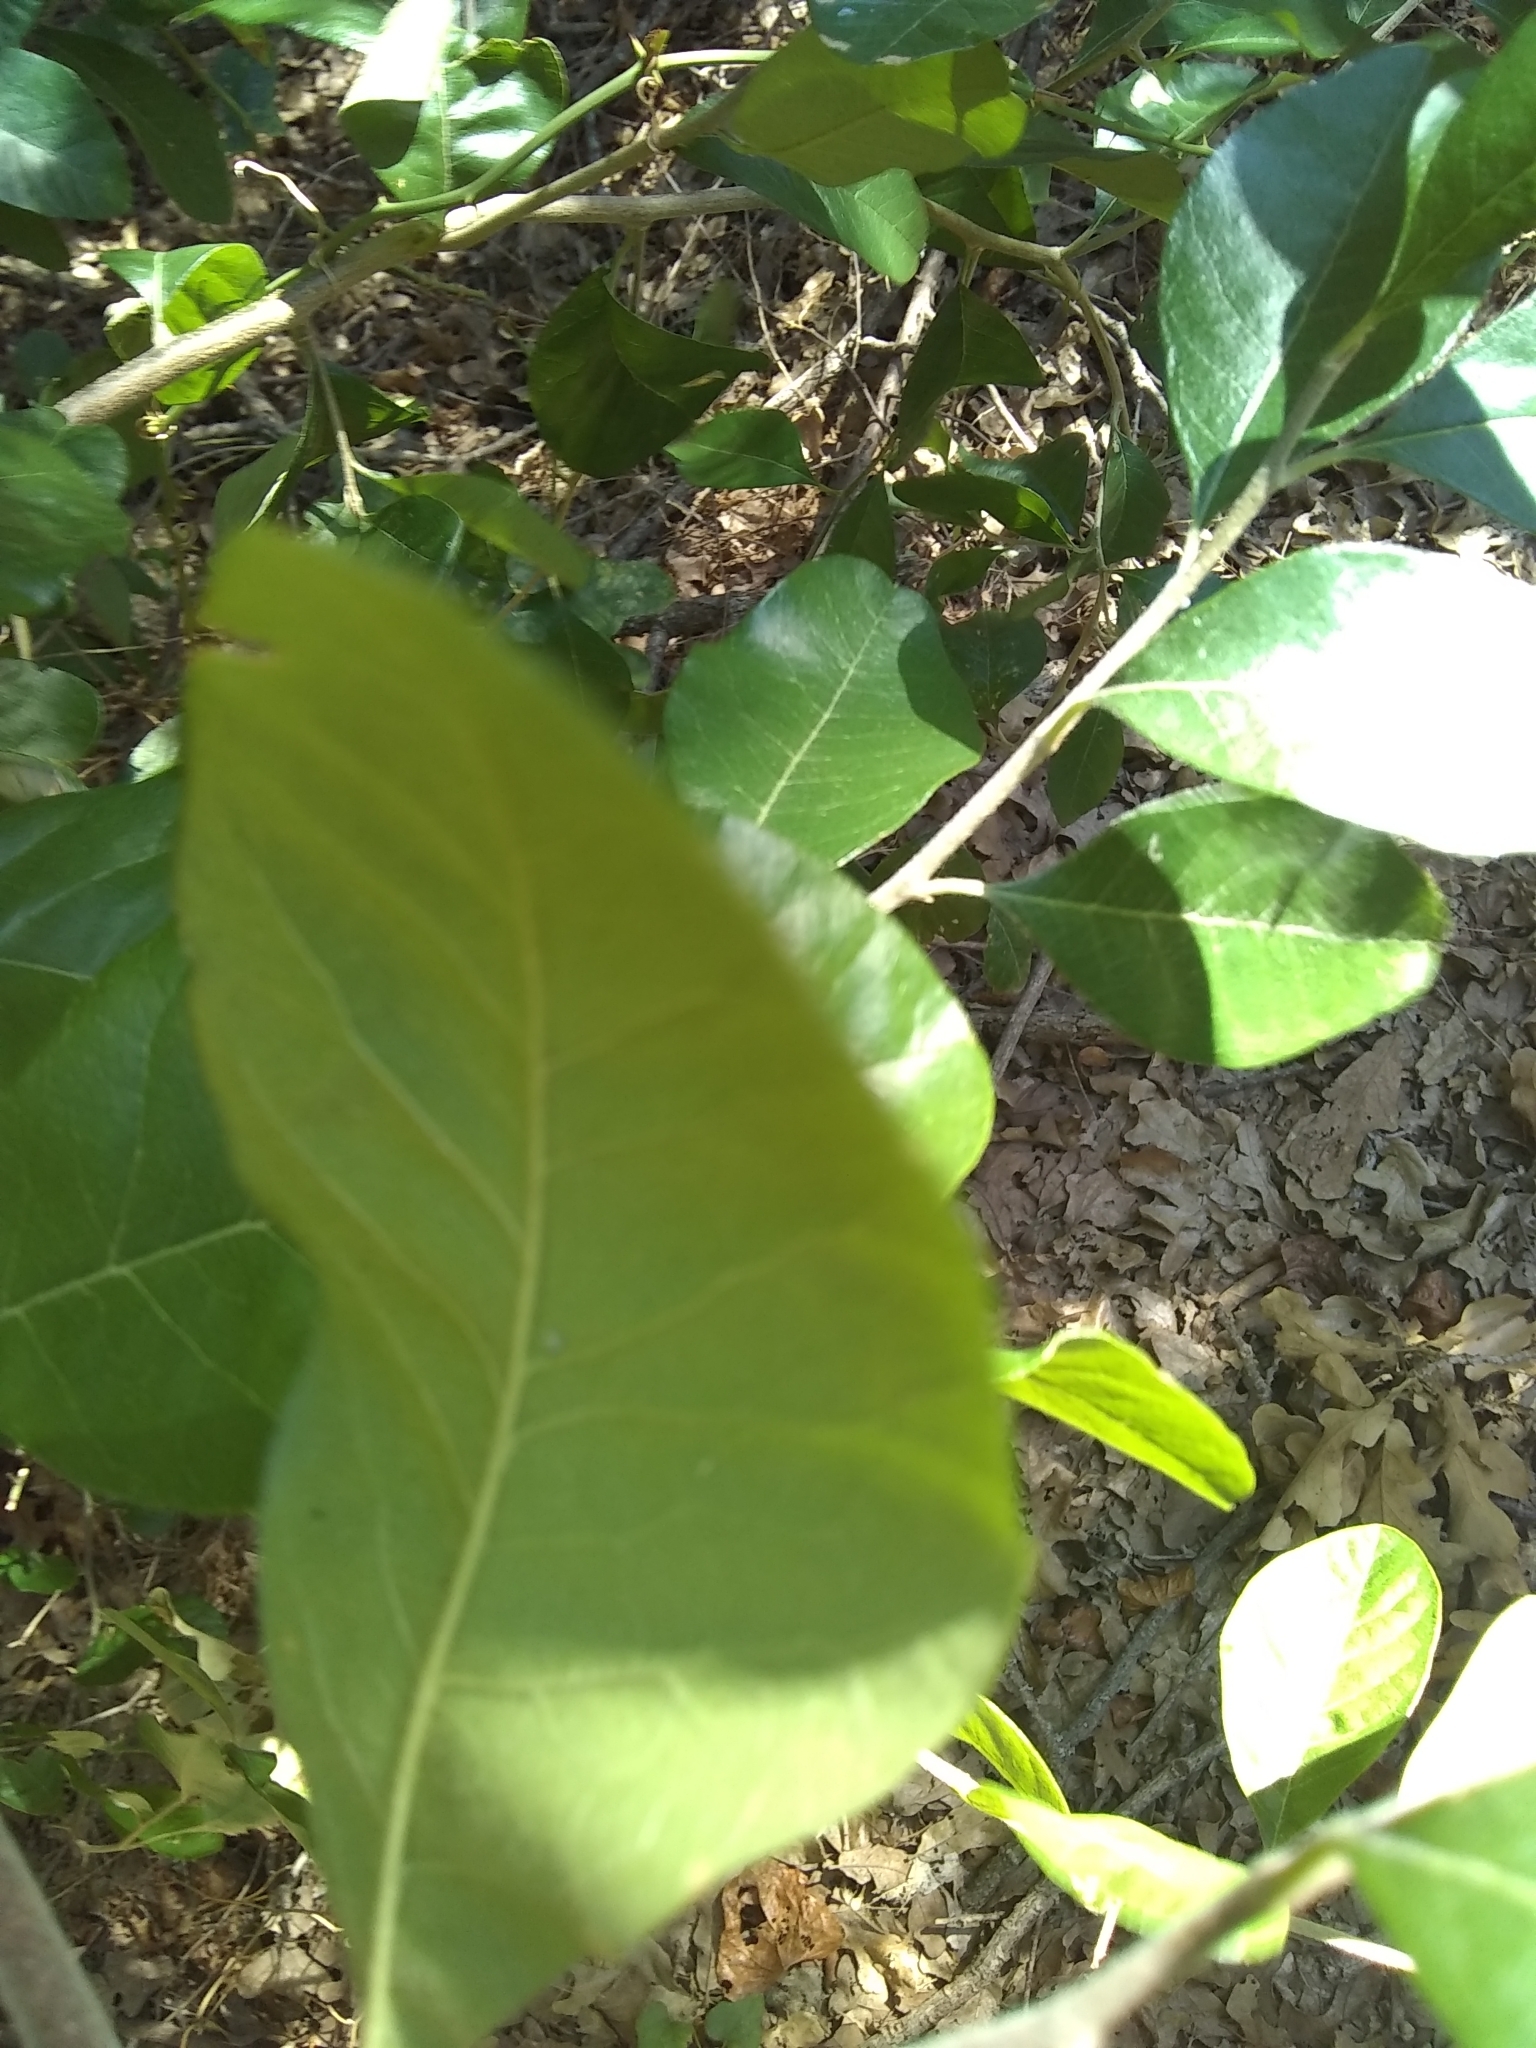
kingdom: Plantae
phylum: Tracheophyta
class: Magnoliopsida
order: Rosales
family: Moraceae
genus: Maclura
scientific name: Maclura pomifera
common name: Osage-orange
